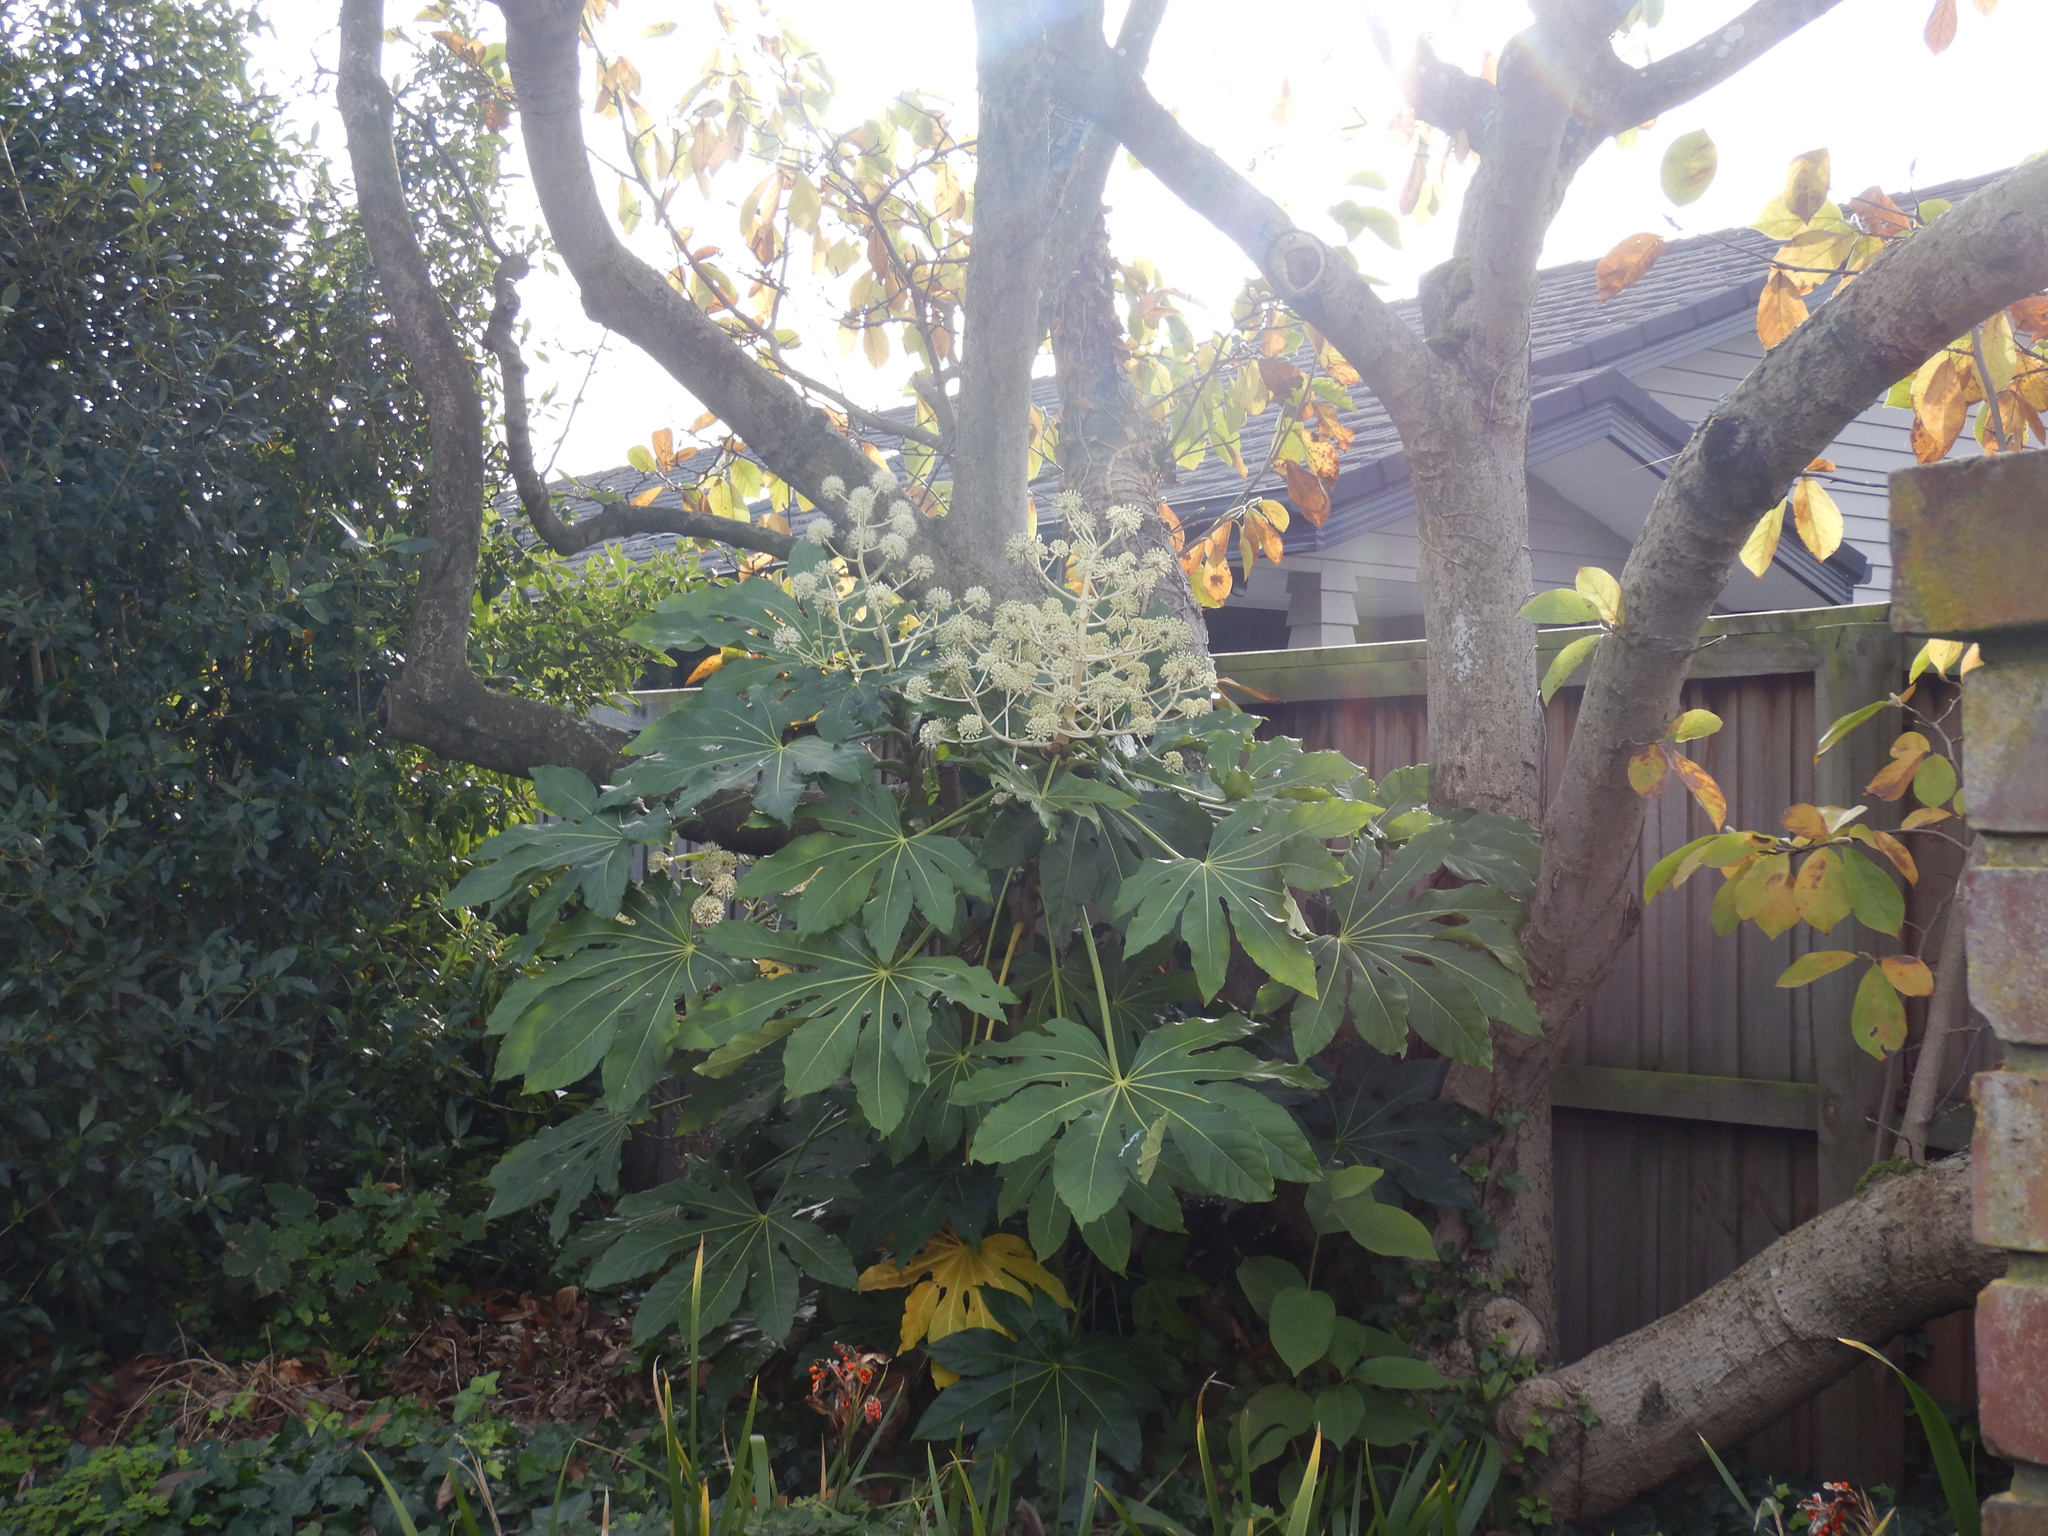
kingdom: Plantae
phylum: Tracheophyta
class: Magnoliopsida
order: Apiales
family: Araliaceae
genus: Fatsia
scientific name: Fatsia japonica
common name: Fatsia
